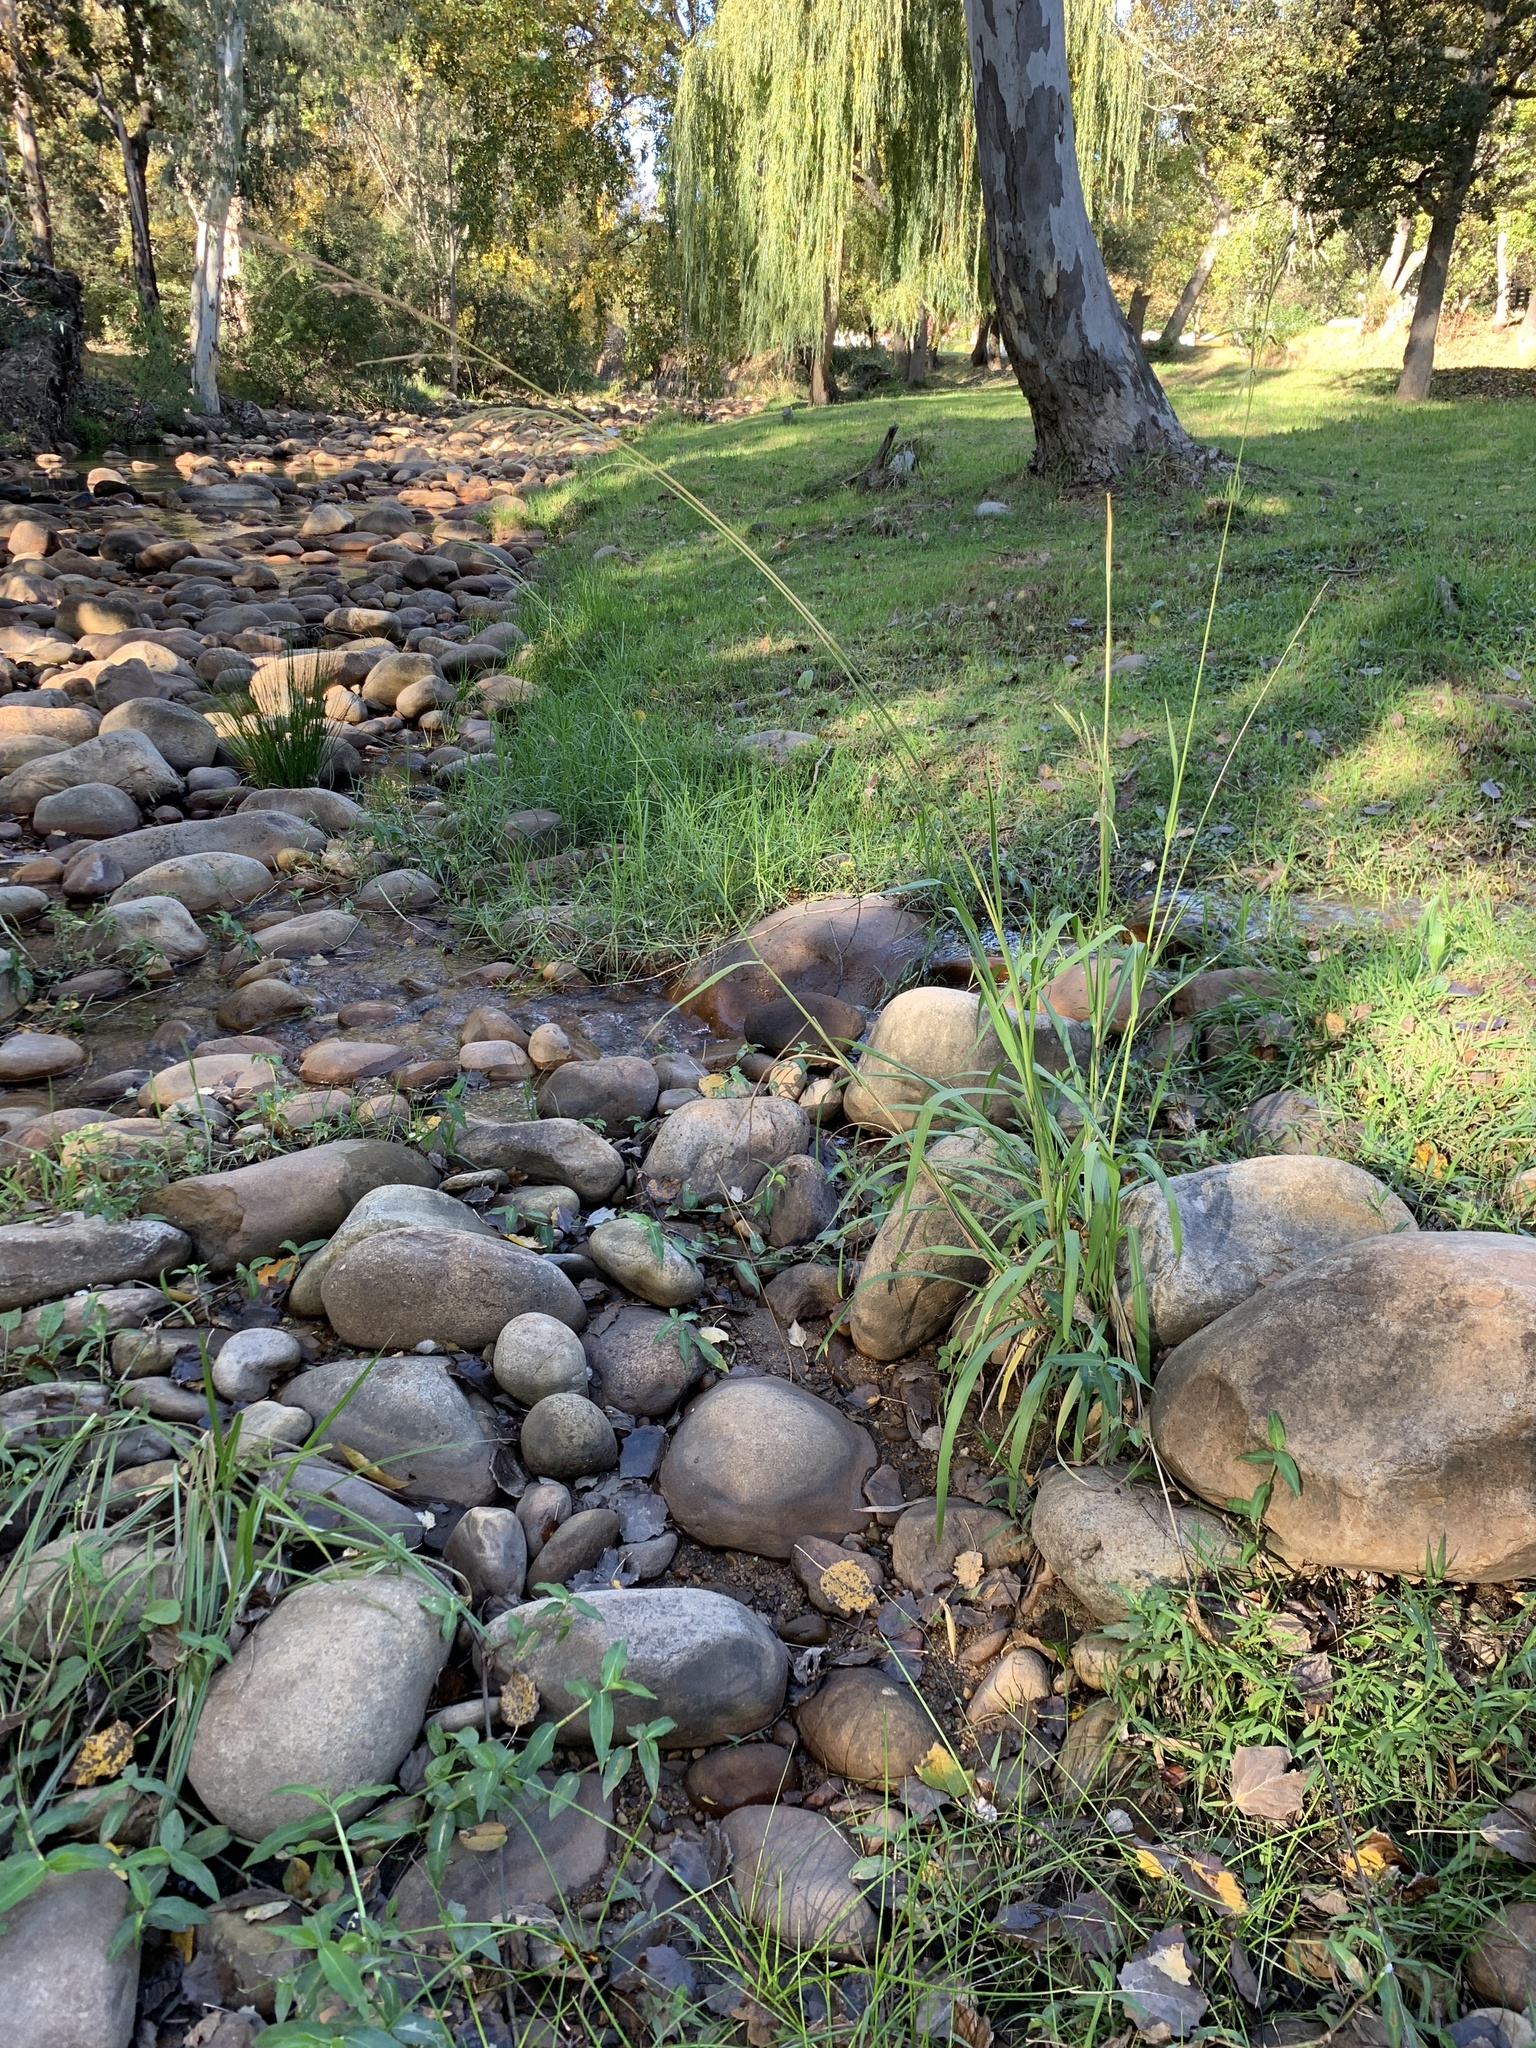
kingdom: Plantae
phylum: Tracheophyta
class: Liliopsida
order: Poales
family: Poaceae
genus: Paspalum
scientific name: Paspalum urvillei
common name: Vasey's grass
